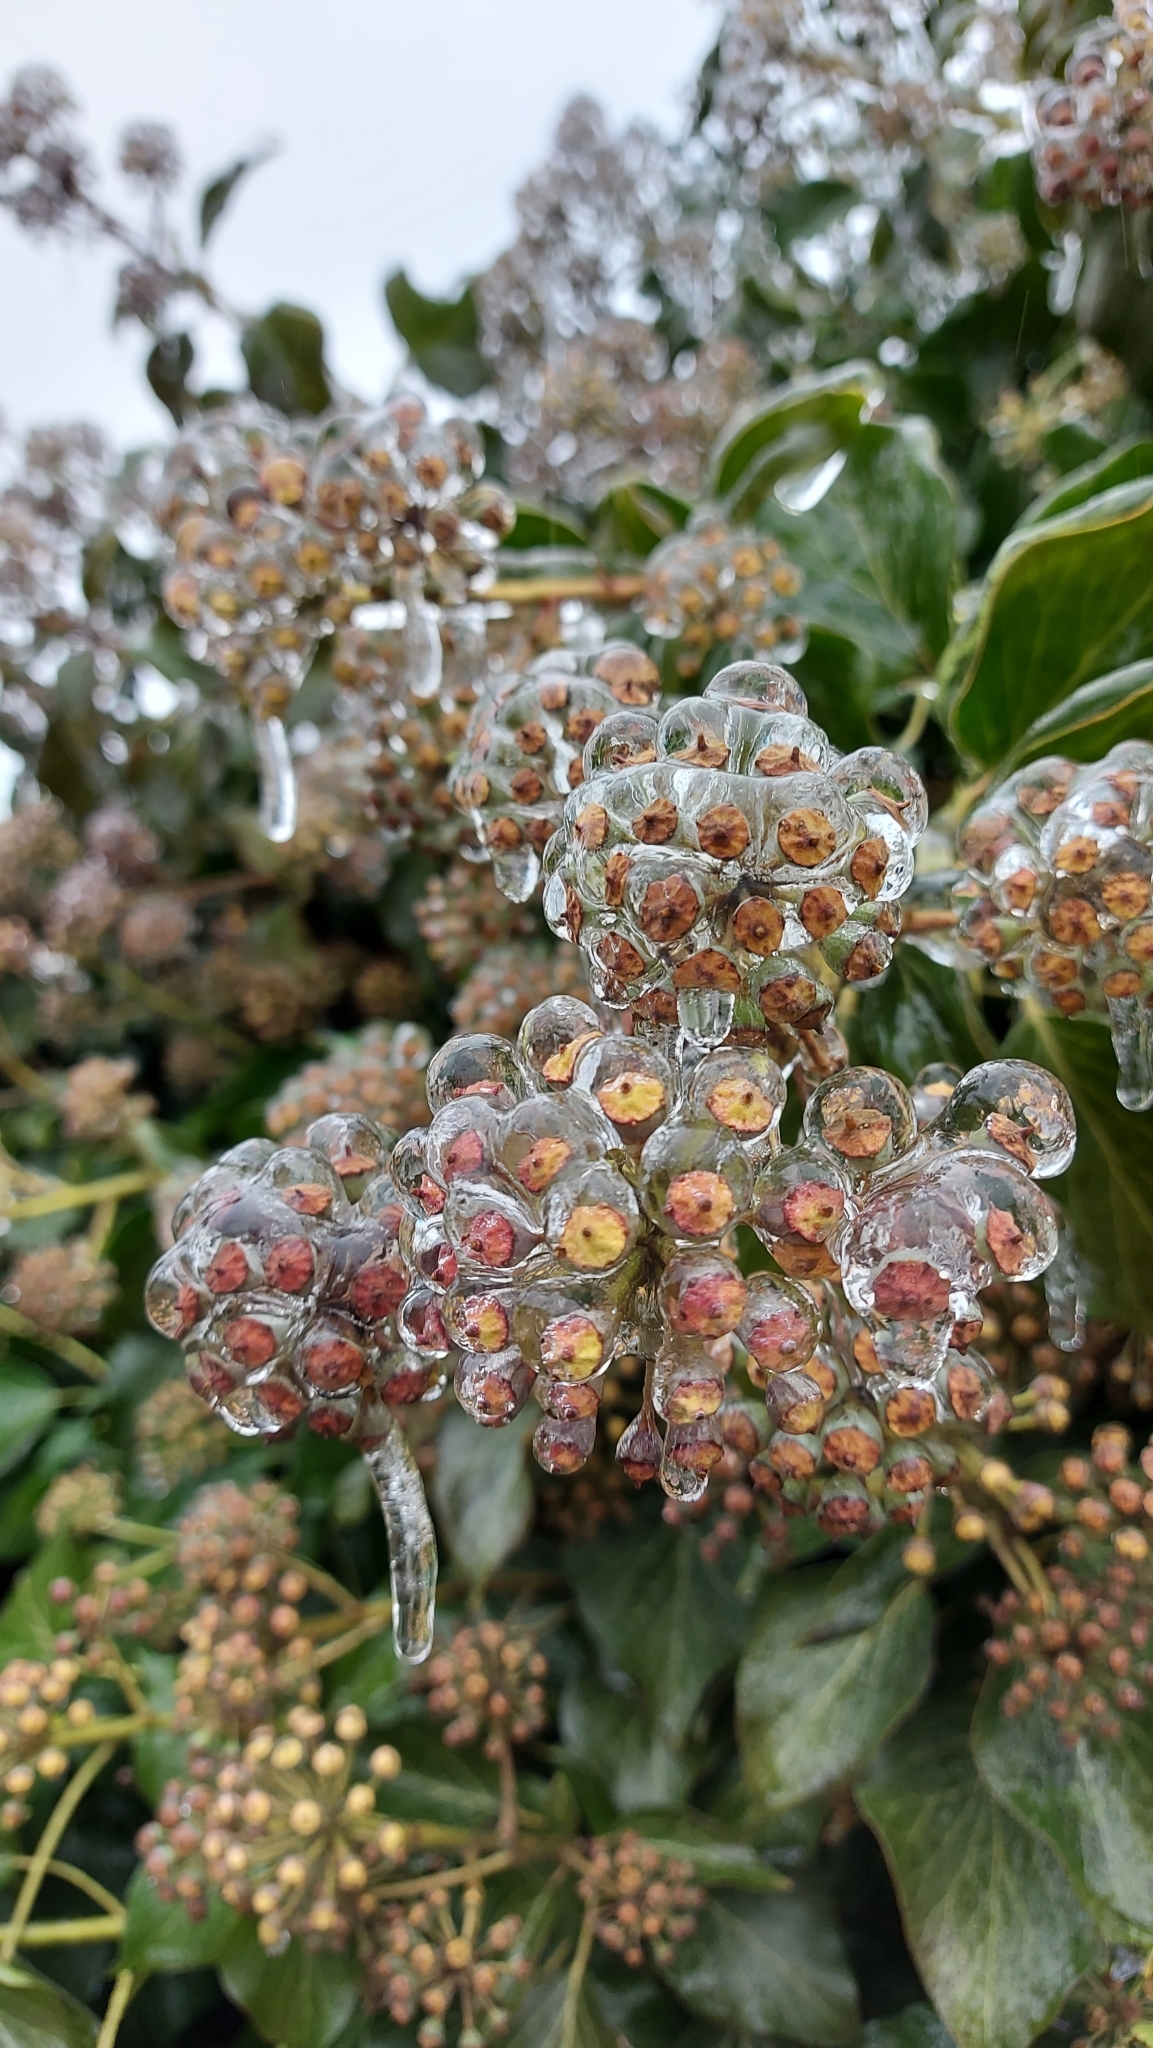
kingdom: Plantae
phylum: Tracheophyta
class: Magnoliopsida
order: Apiales
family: Araliaceae
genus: Hedera
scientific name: Hedera helix
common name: Ivy
